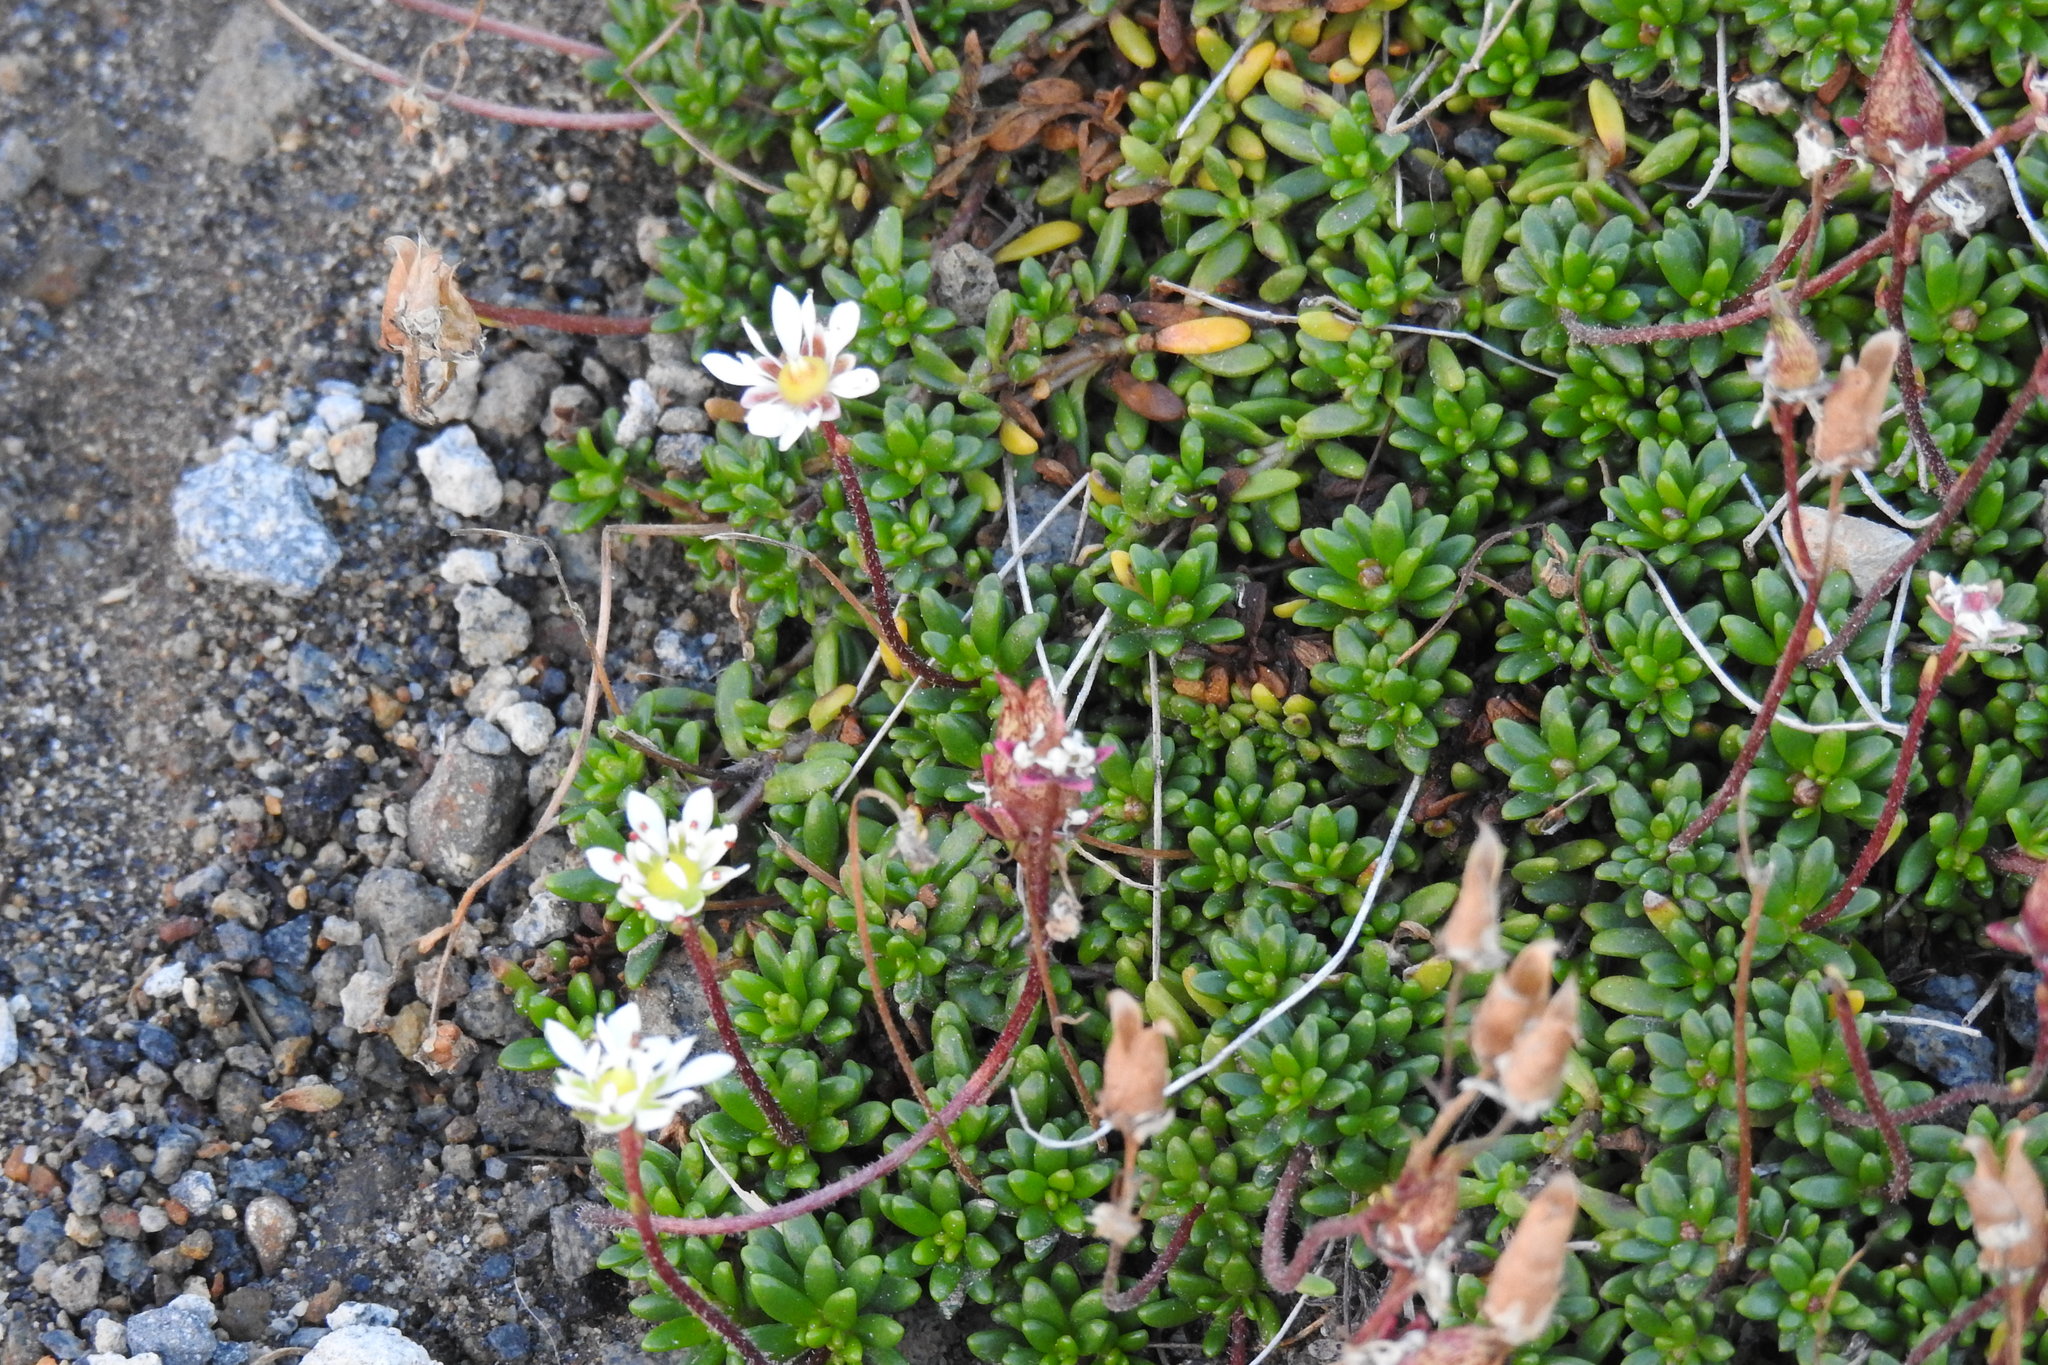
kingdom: Plantae
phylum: Tracheophyta
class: Magnoliopsida
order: Saxifragales
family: Saxifragaceae
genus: Micranthes
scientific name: Micranthes tolmiei
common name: Tolmie's saxifrage
